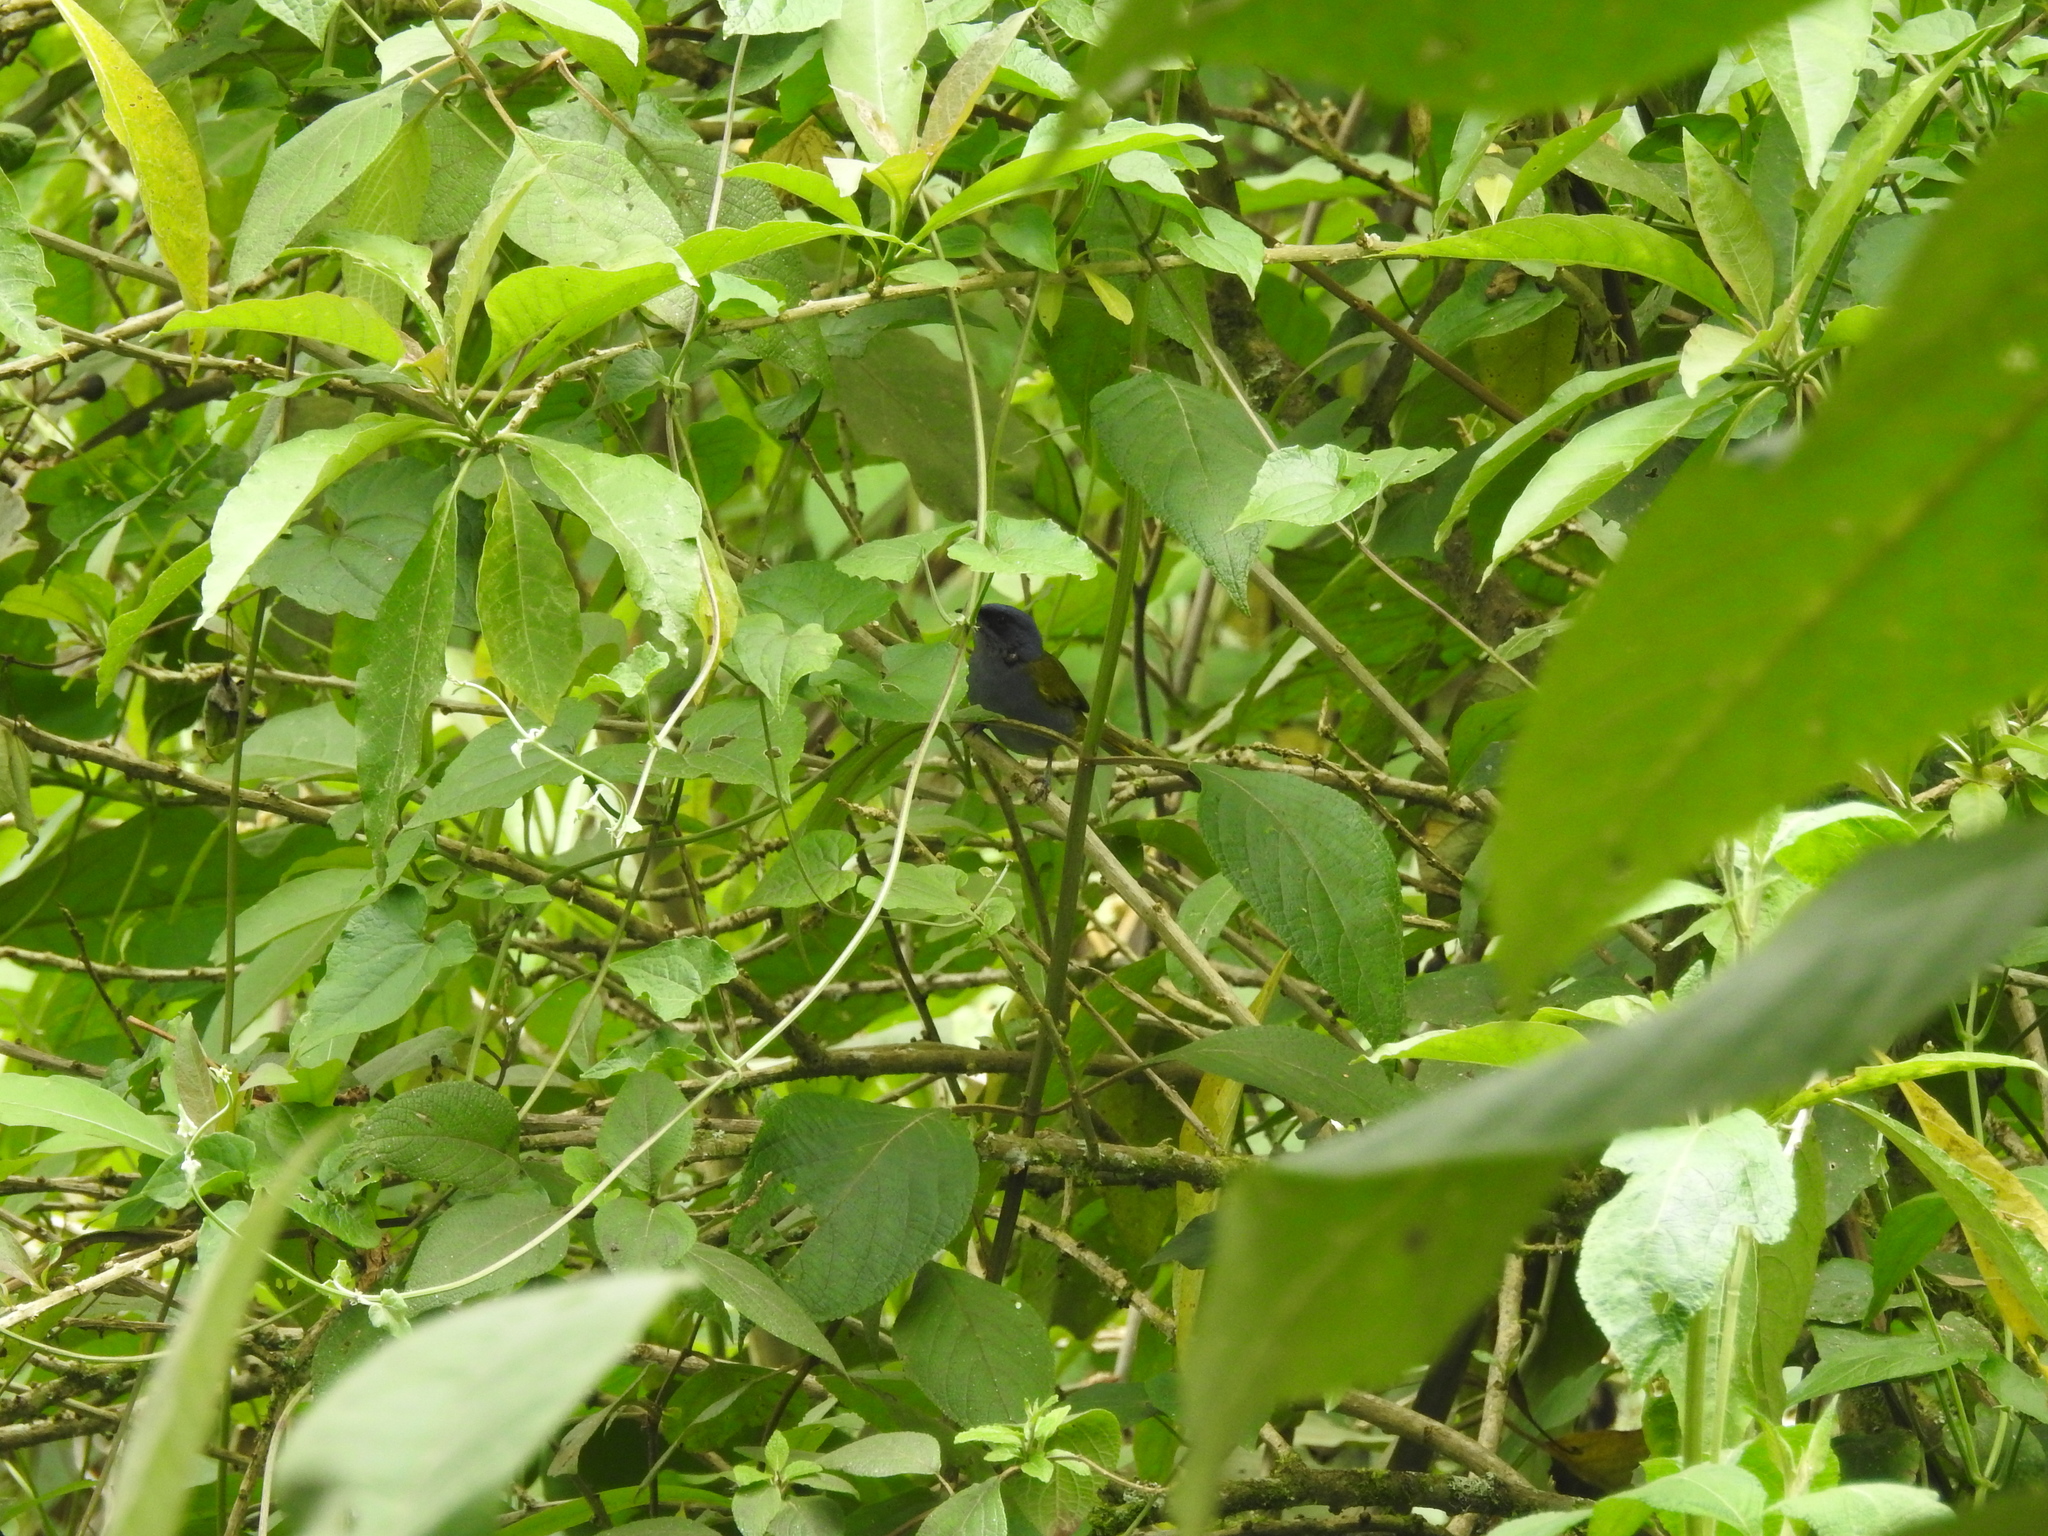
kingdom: Animalia
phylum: Chordata
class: Aves
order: Passeriformes
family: Thraupidae
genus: Sporathraupis
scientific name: Sporathraupis cyanocephala
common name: Blue-capped tanager
